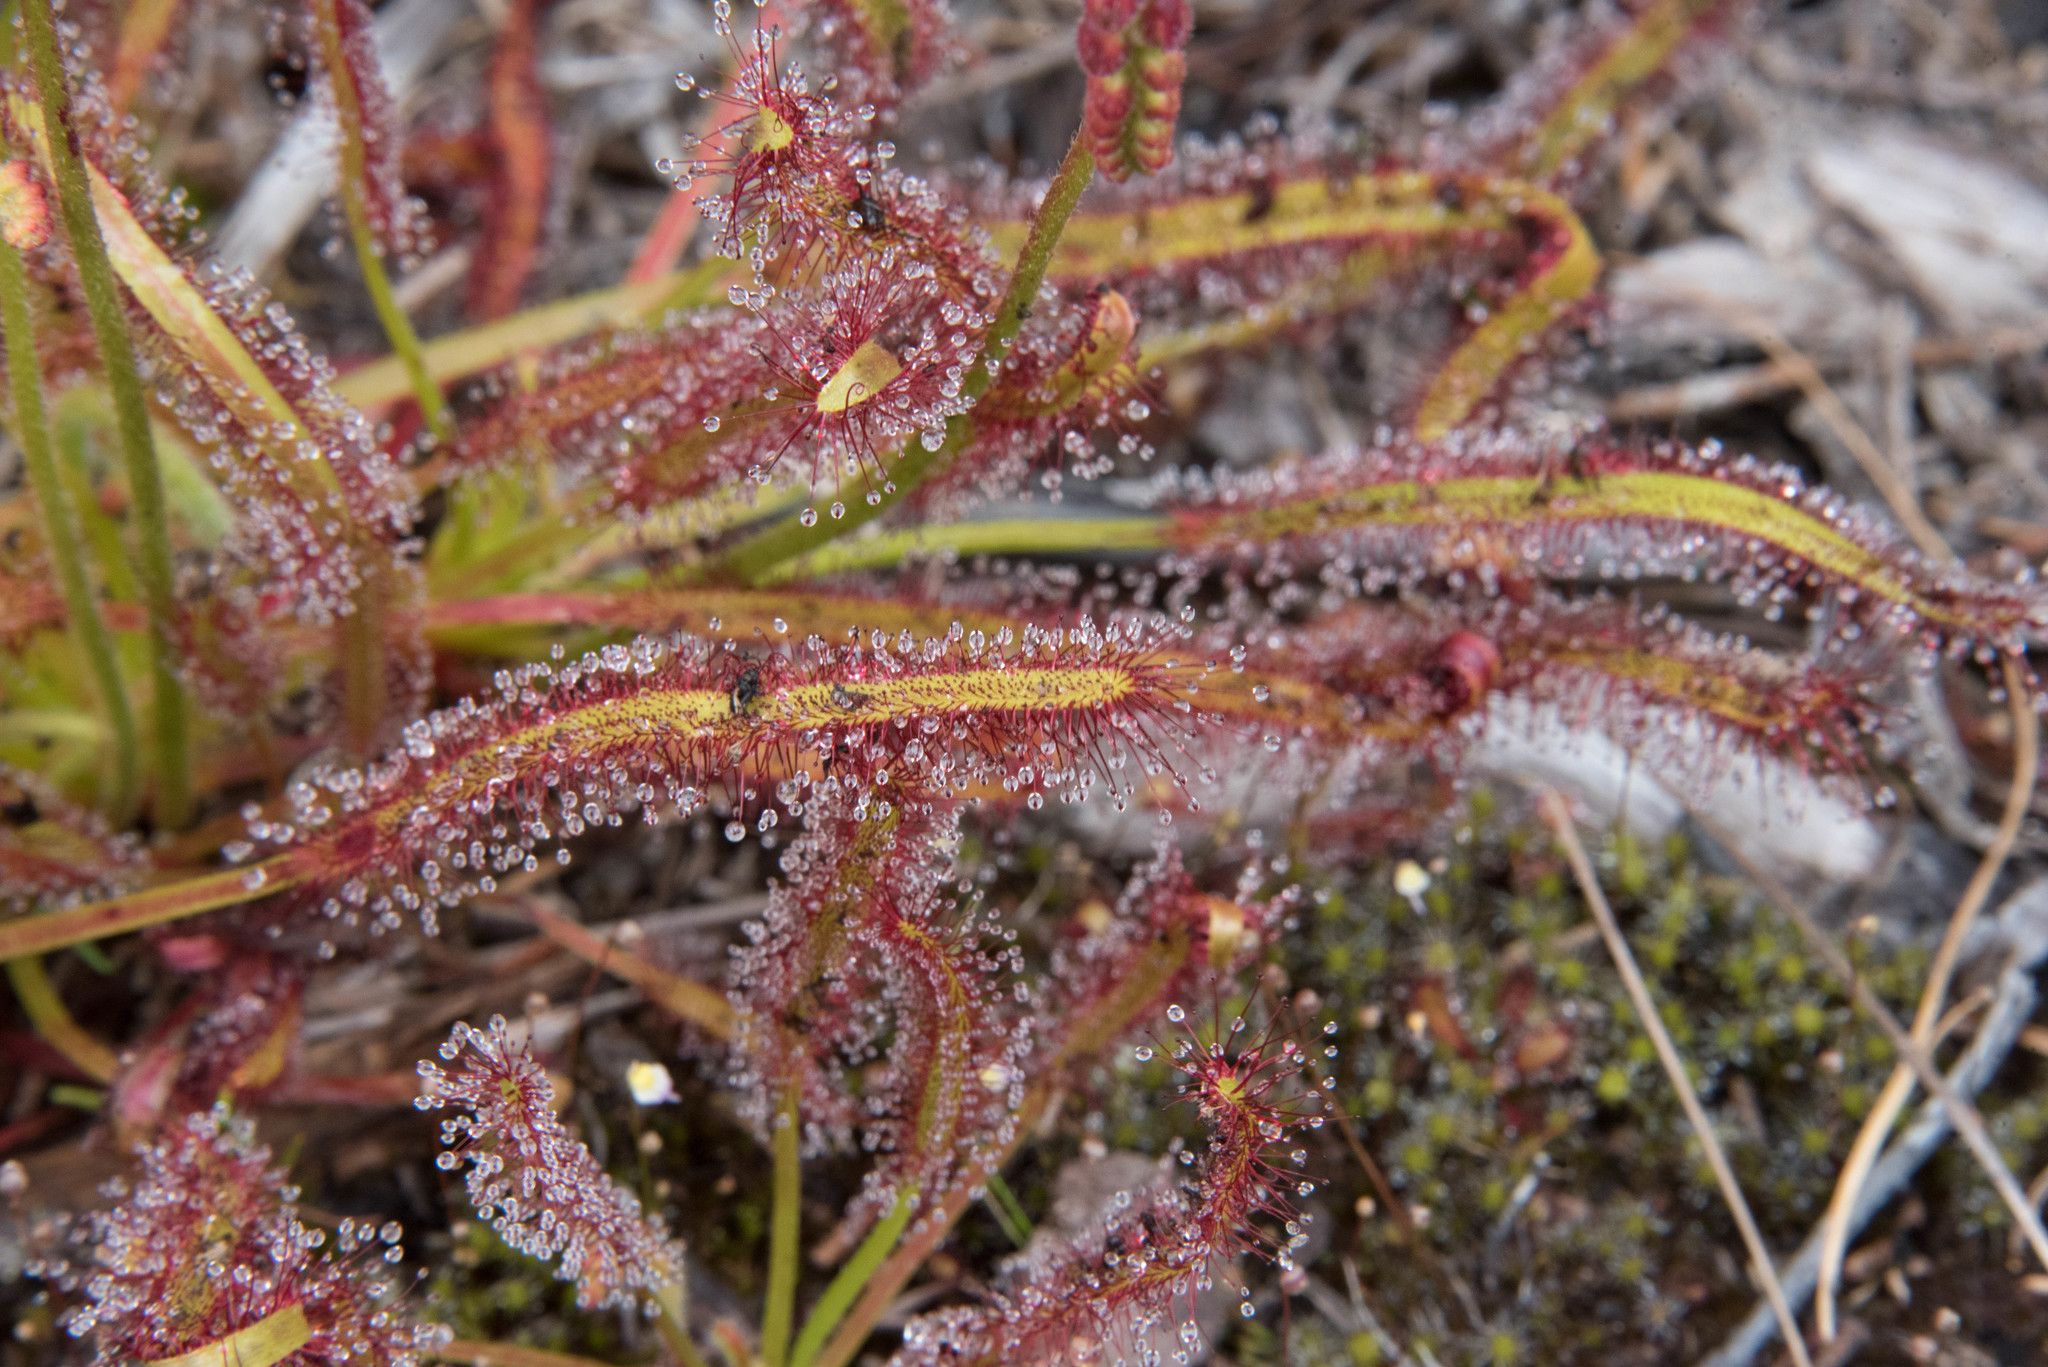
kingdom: Plantae
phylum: Tracheophyta
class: Magnoliopsida
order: Caryophyllales
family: Droseraceae
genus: Drosera
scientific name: Drosera capensis
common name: Cape sundew
